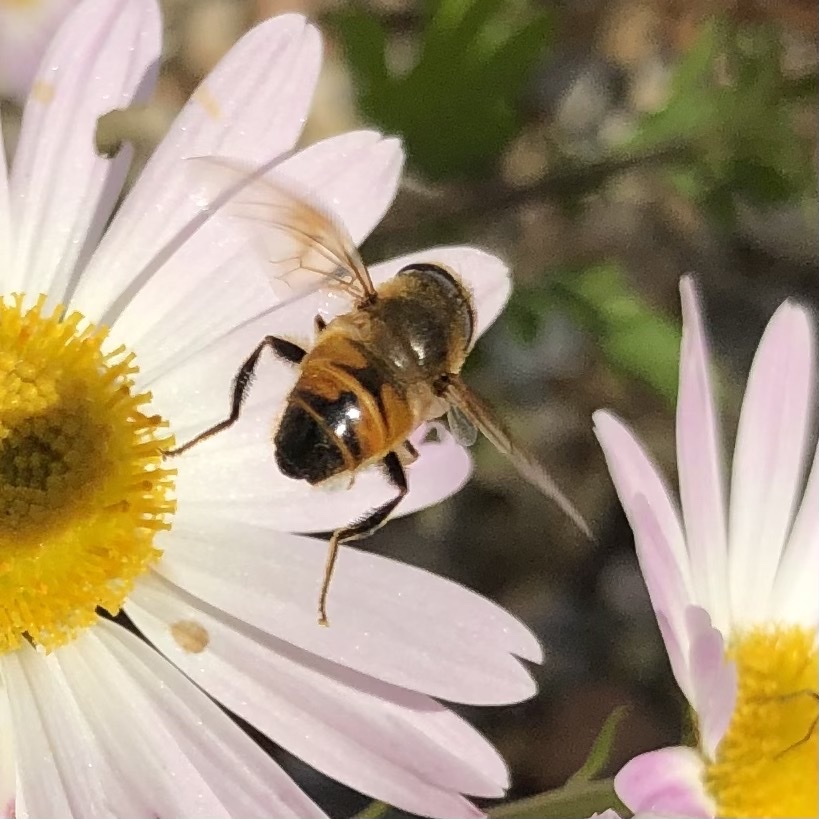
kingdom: Animalia
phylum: Arthropoda
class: Insecta
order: Diptera
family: Syrphidae
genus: Eristalis
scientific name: Eristalis tenax
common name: Drone fly
